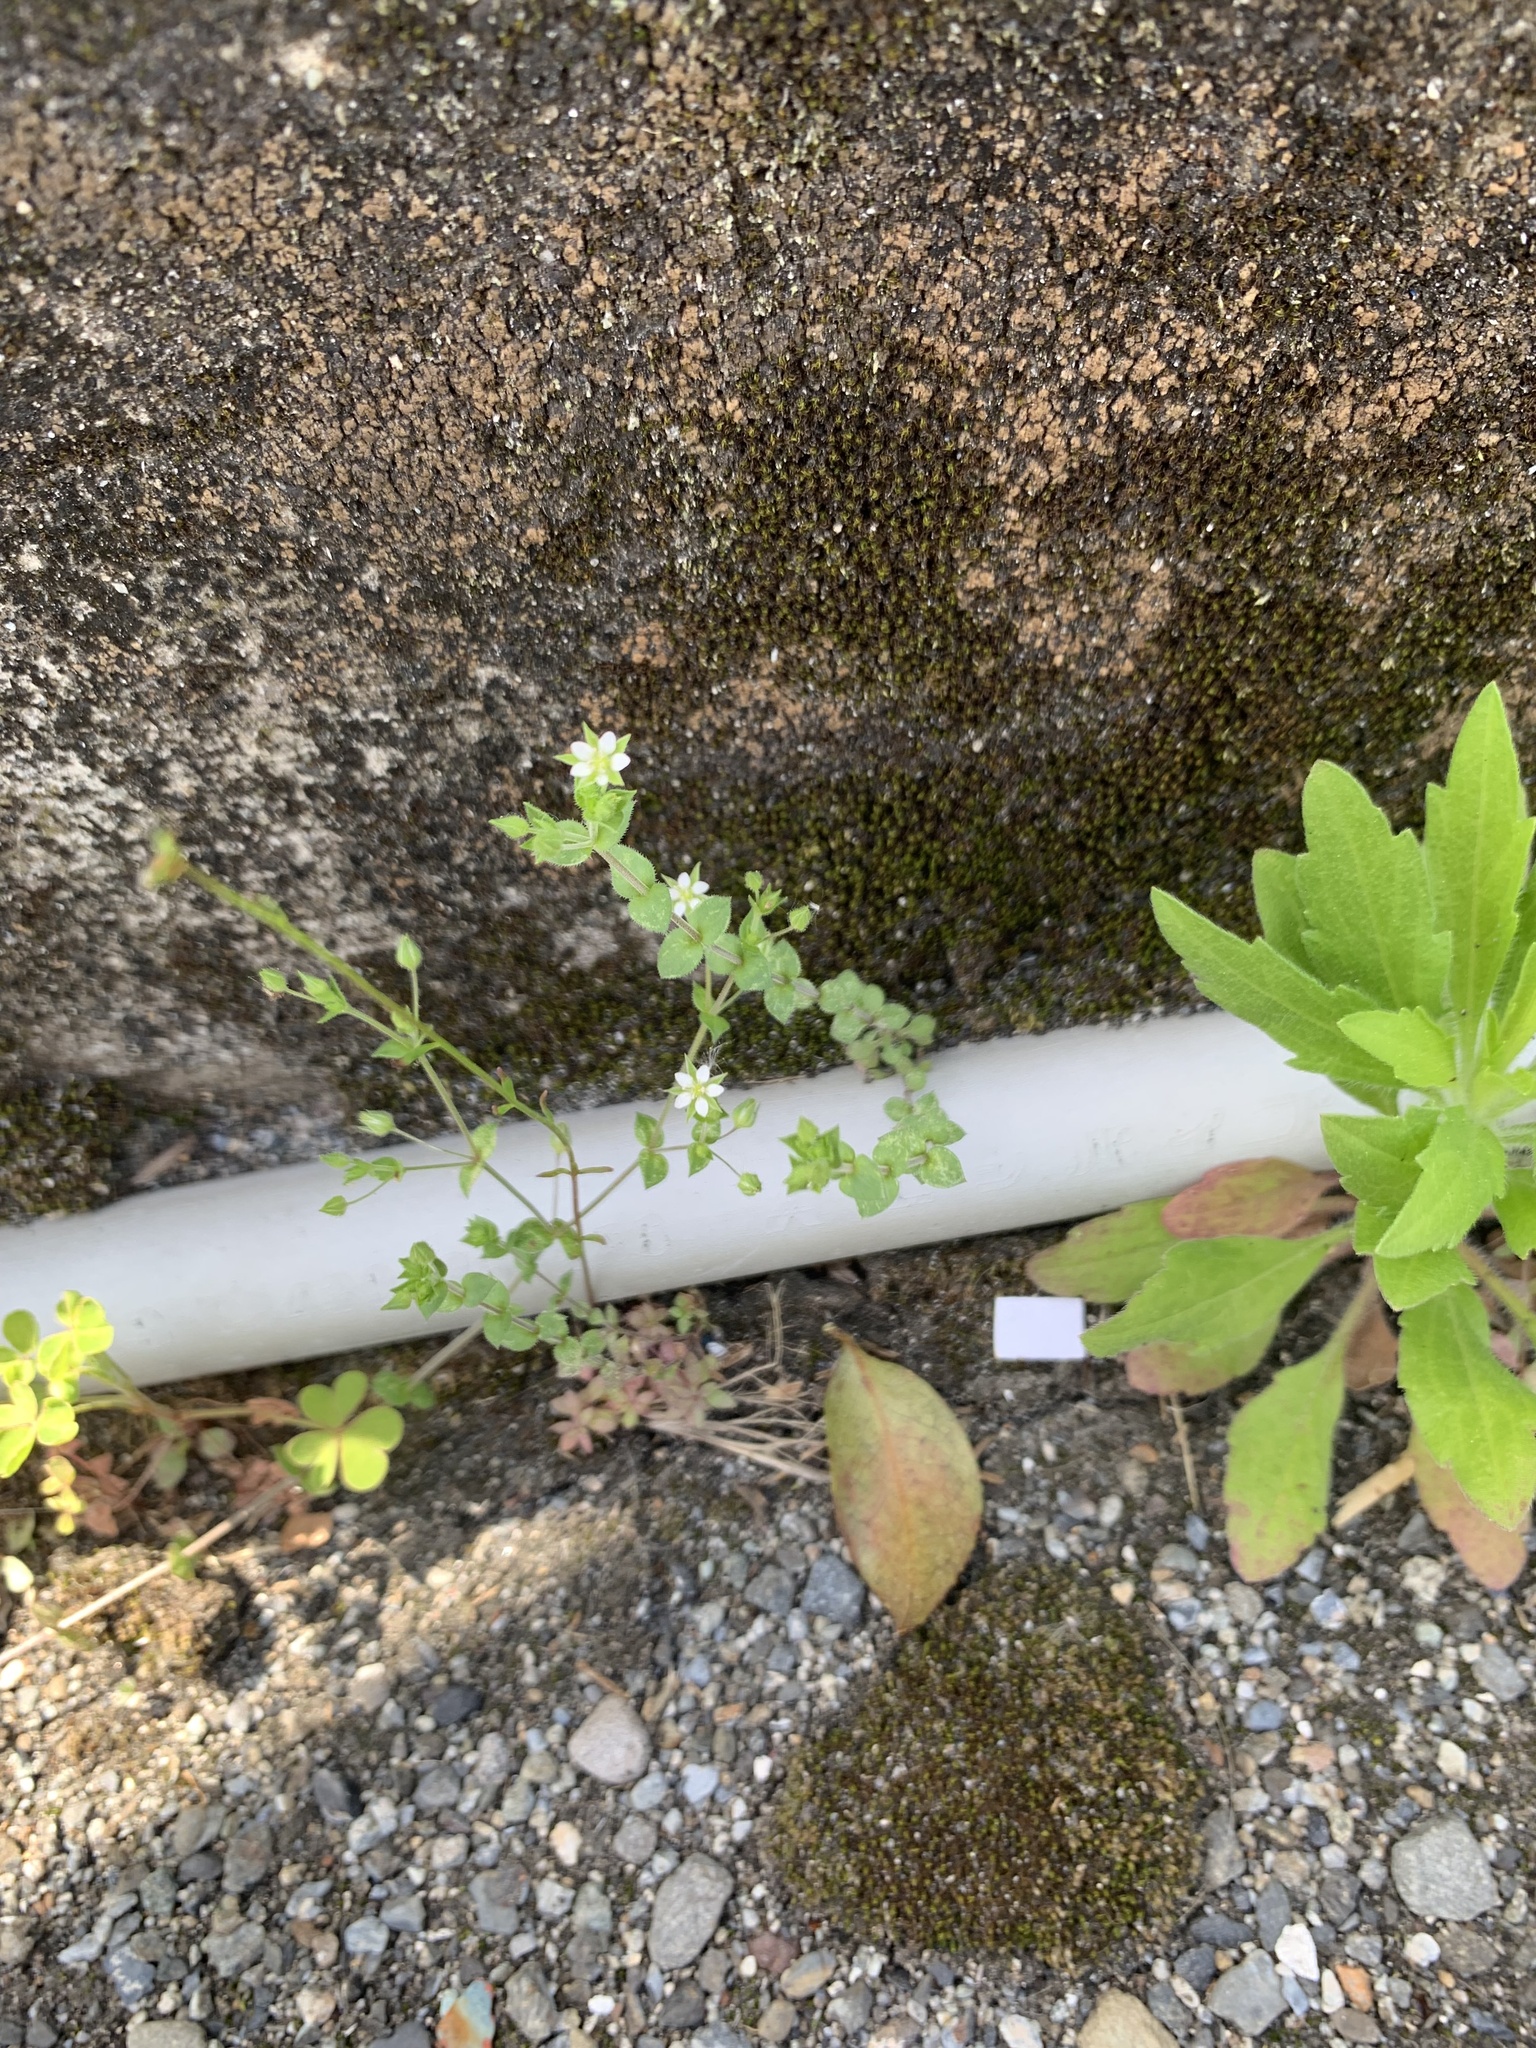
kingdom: Plantae
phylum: Tracheophyta
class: Magnoliopsida
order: Caryophyllales
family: Caryophyllaceae
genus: Arenaria
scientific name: Arenaria serpyllifolia
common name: Thyme-leaved sandwort
